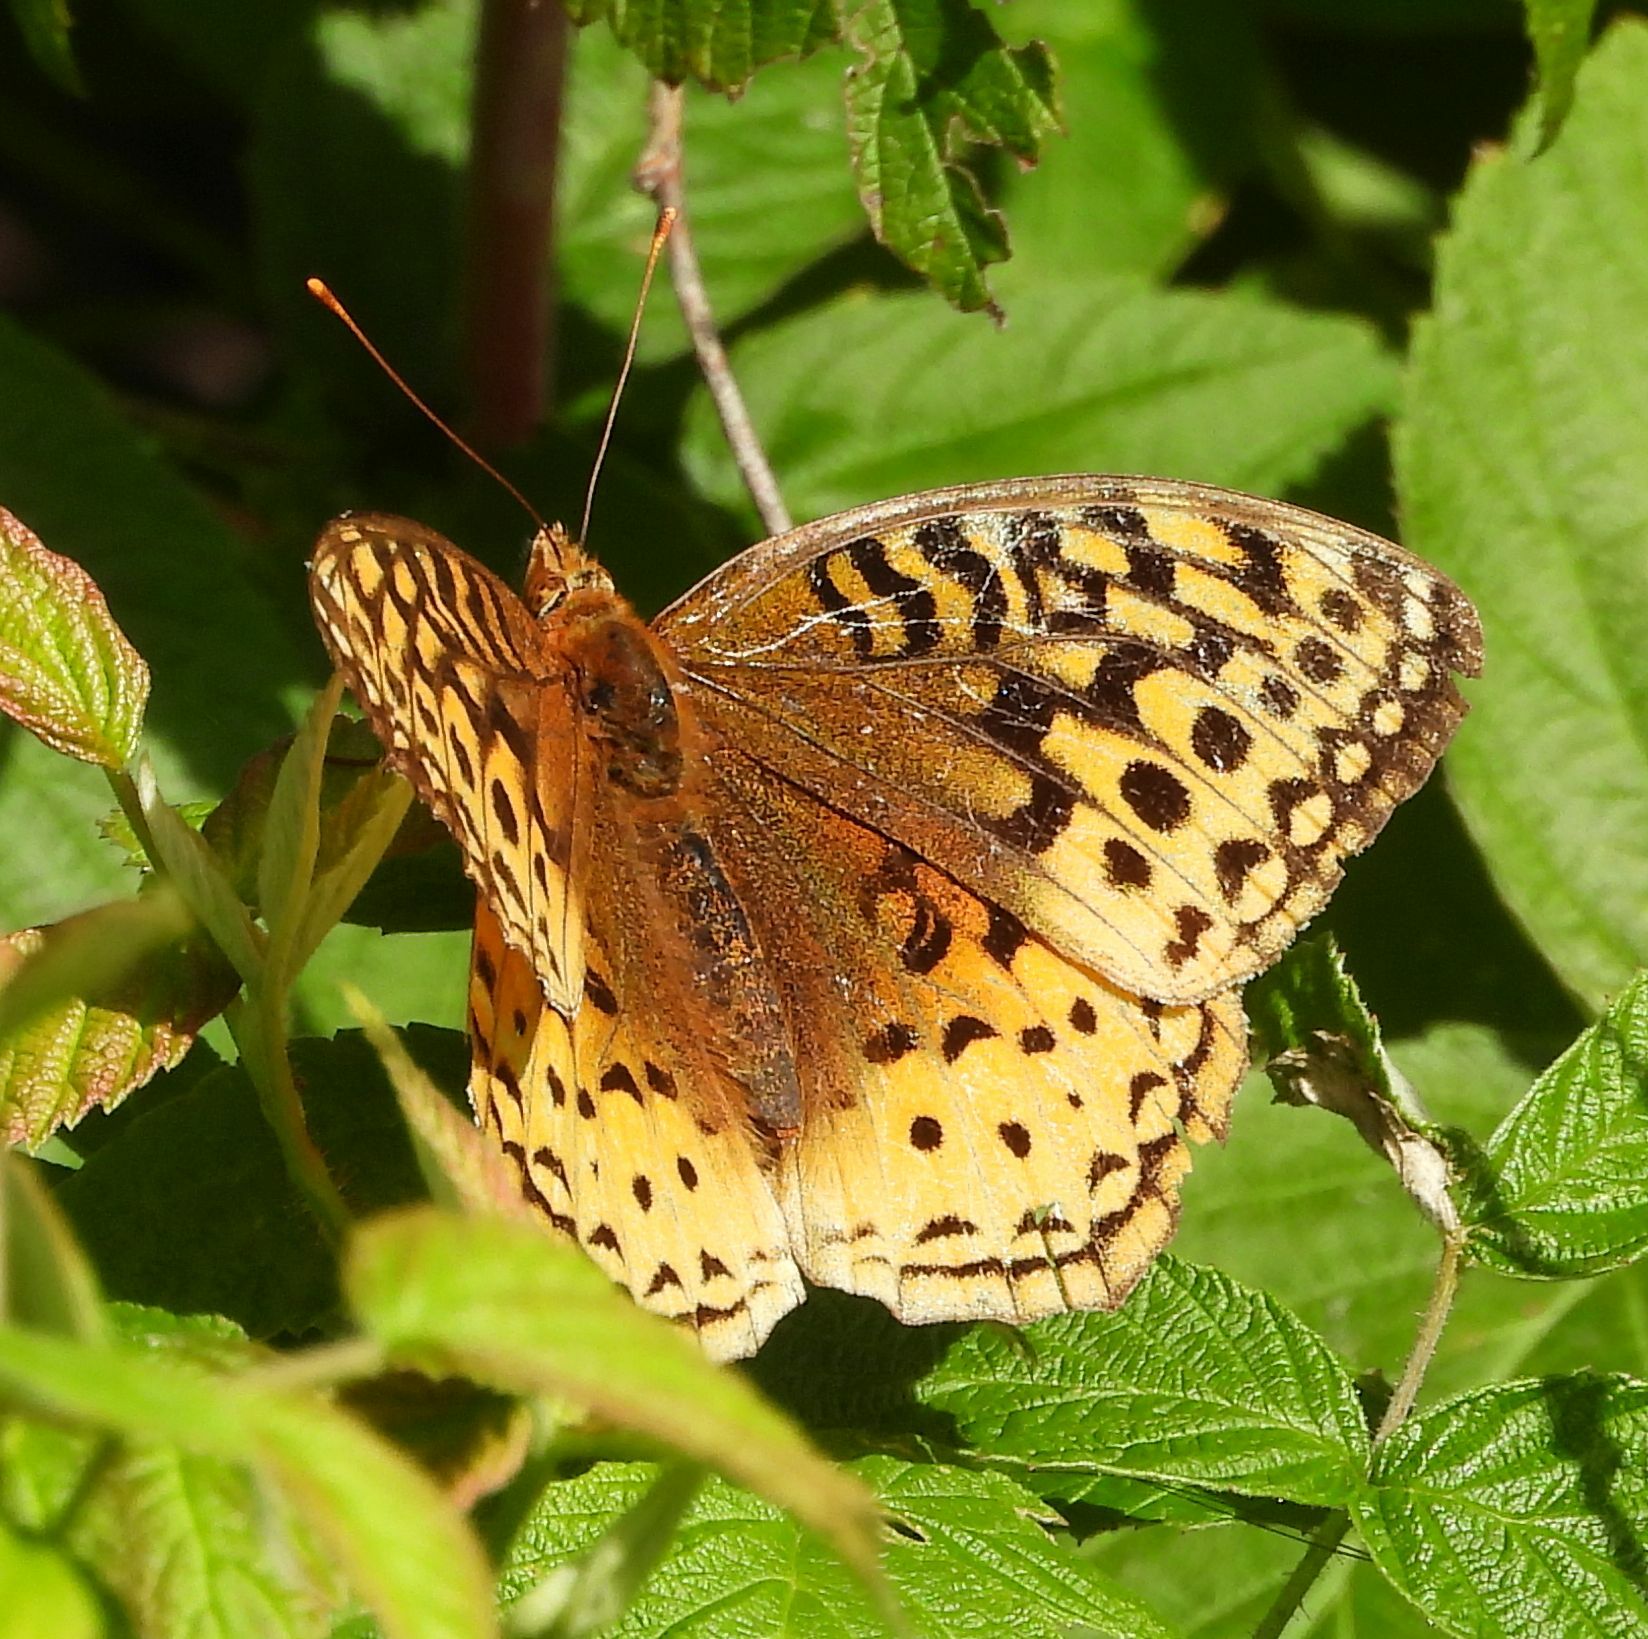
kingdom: Animalia
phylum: Arthropoda
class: Insecta
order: Lepidoptera
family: Nymphalidae
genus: Speyeria
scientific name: Speyeria cybele
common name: Great spangled fritillary
